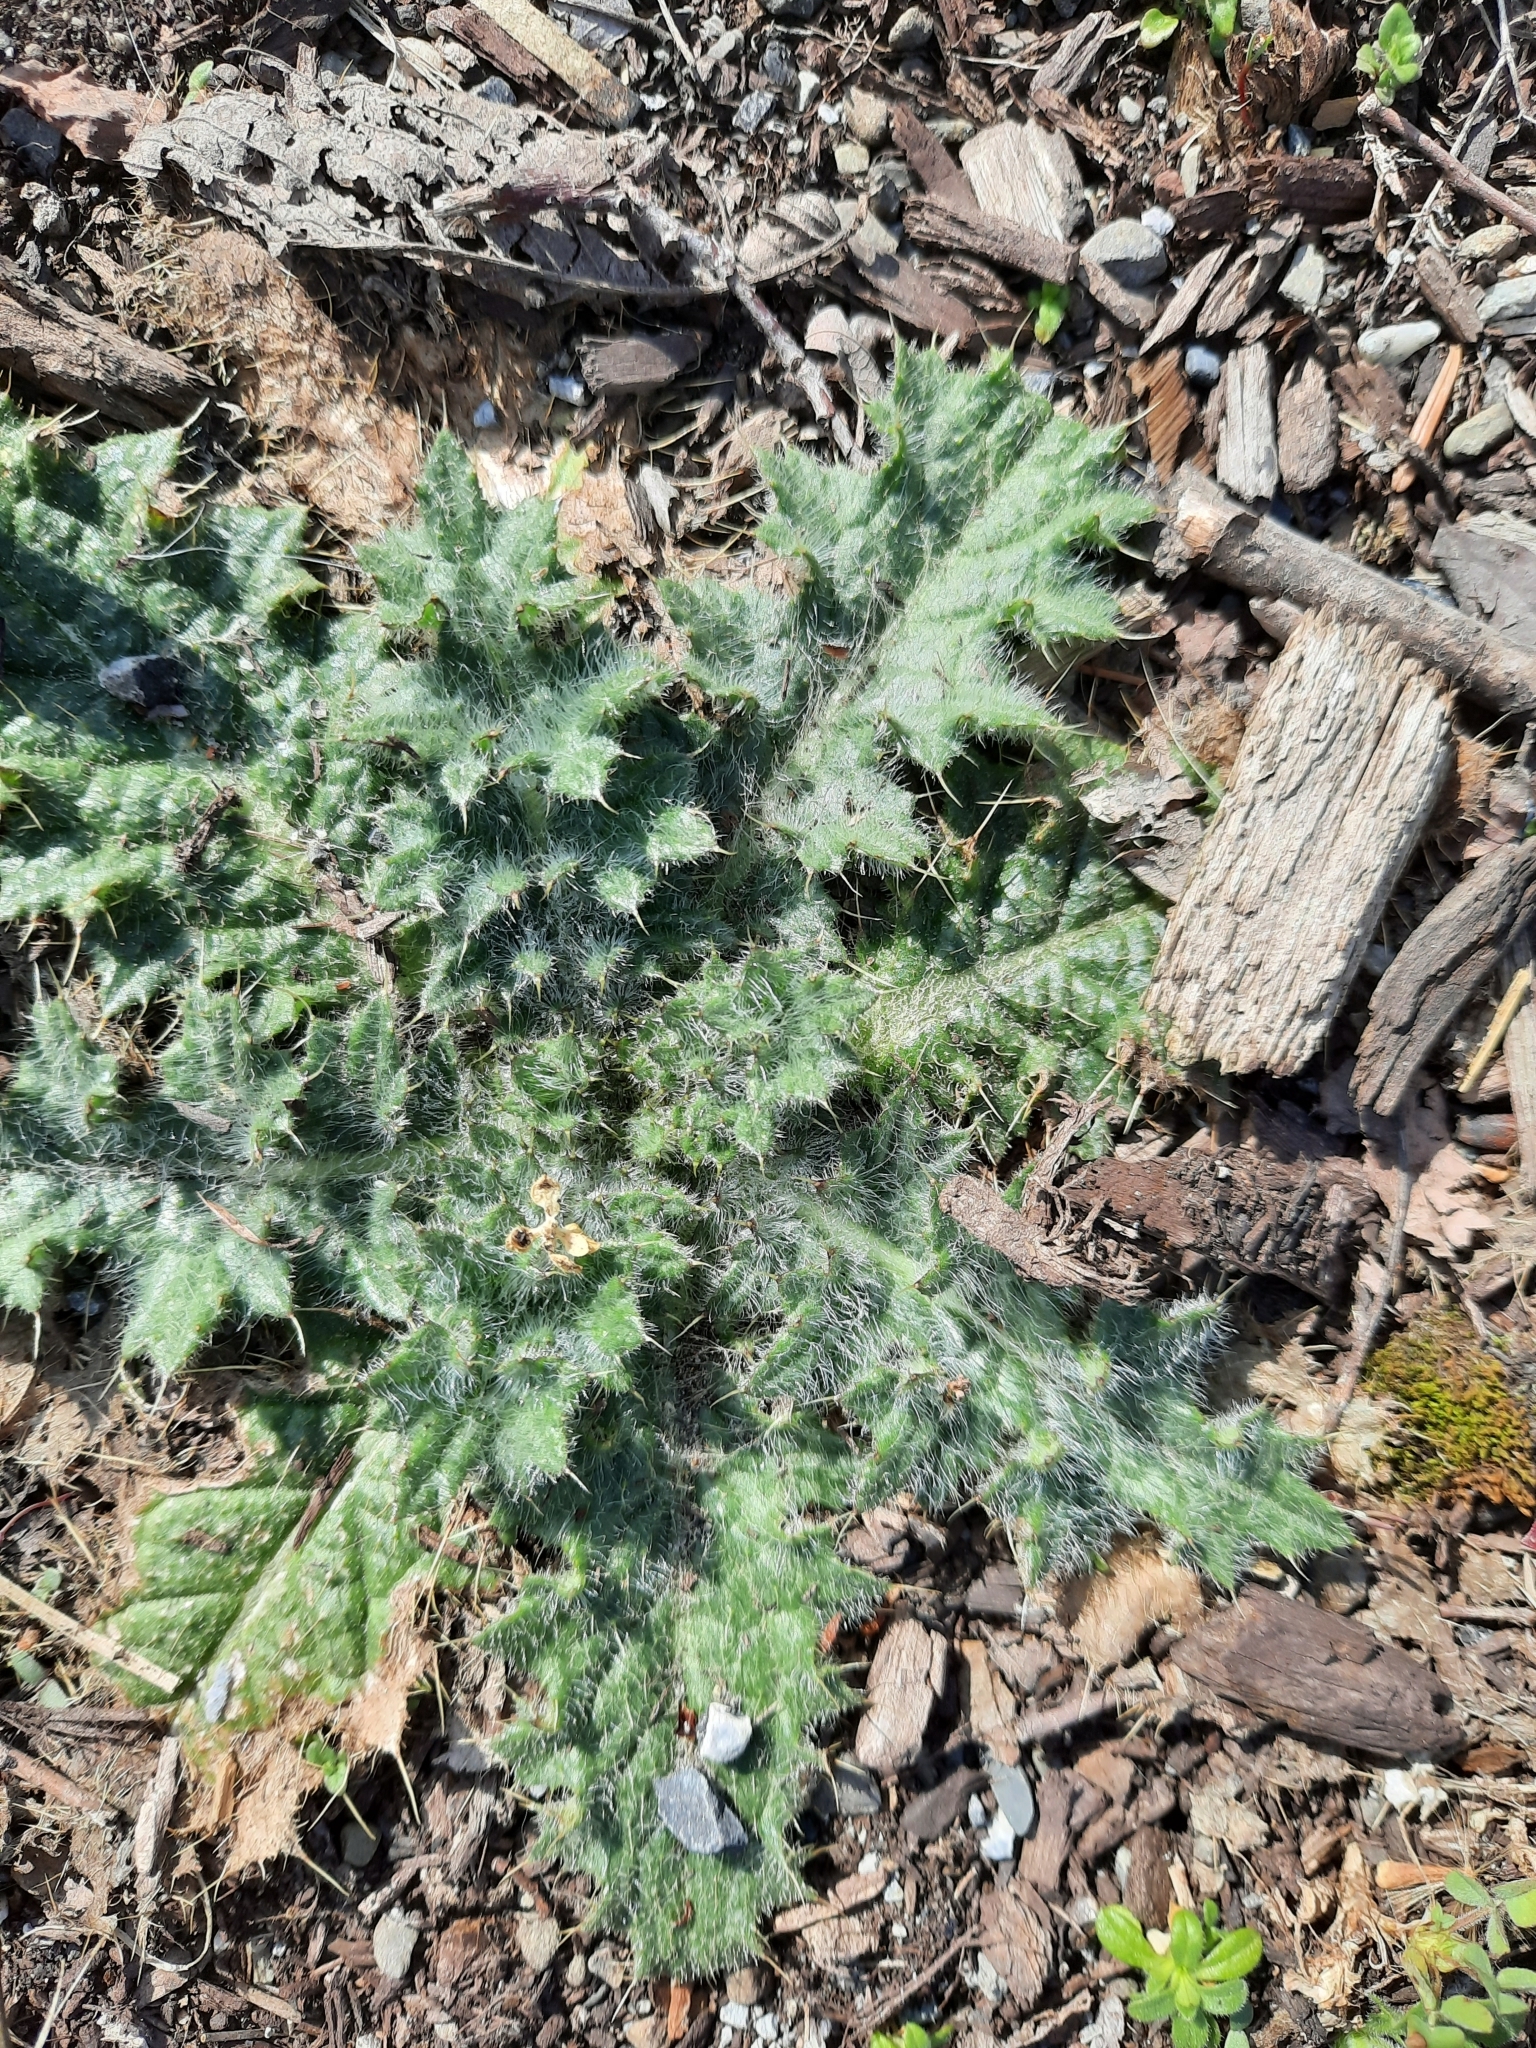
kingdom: Plantae
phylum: Tracheophyta
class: Magnoliopsida
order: Asterales
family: Asteraceae
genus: Cirsium
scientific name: Cirsium vulgare
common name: Bull thistle
